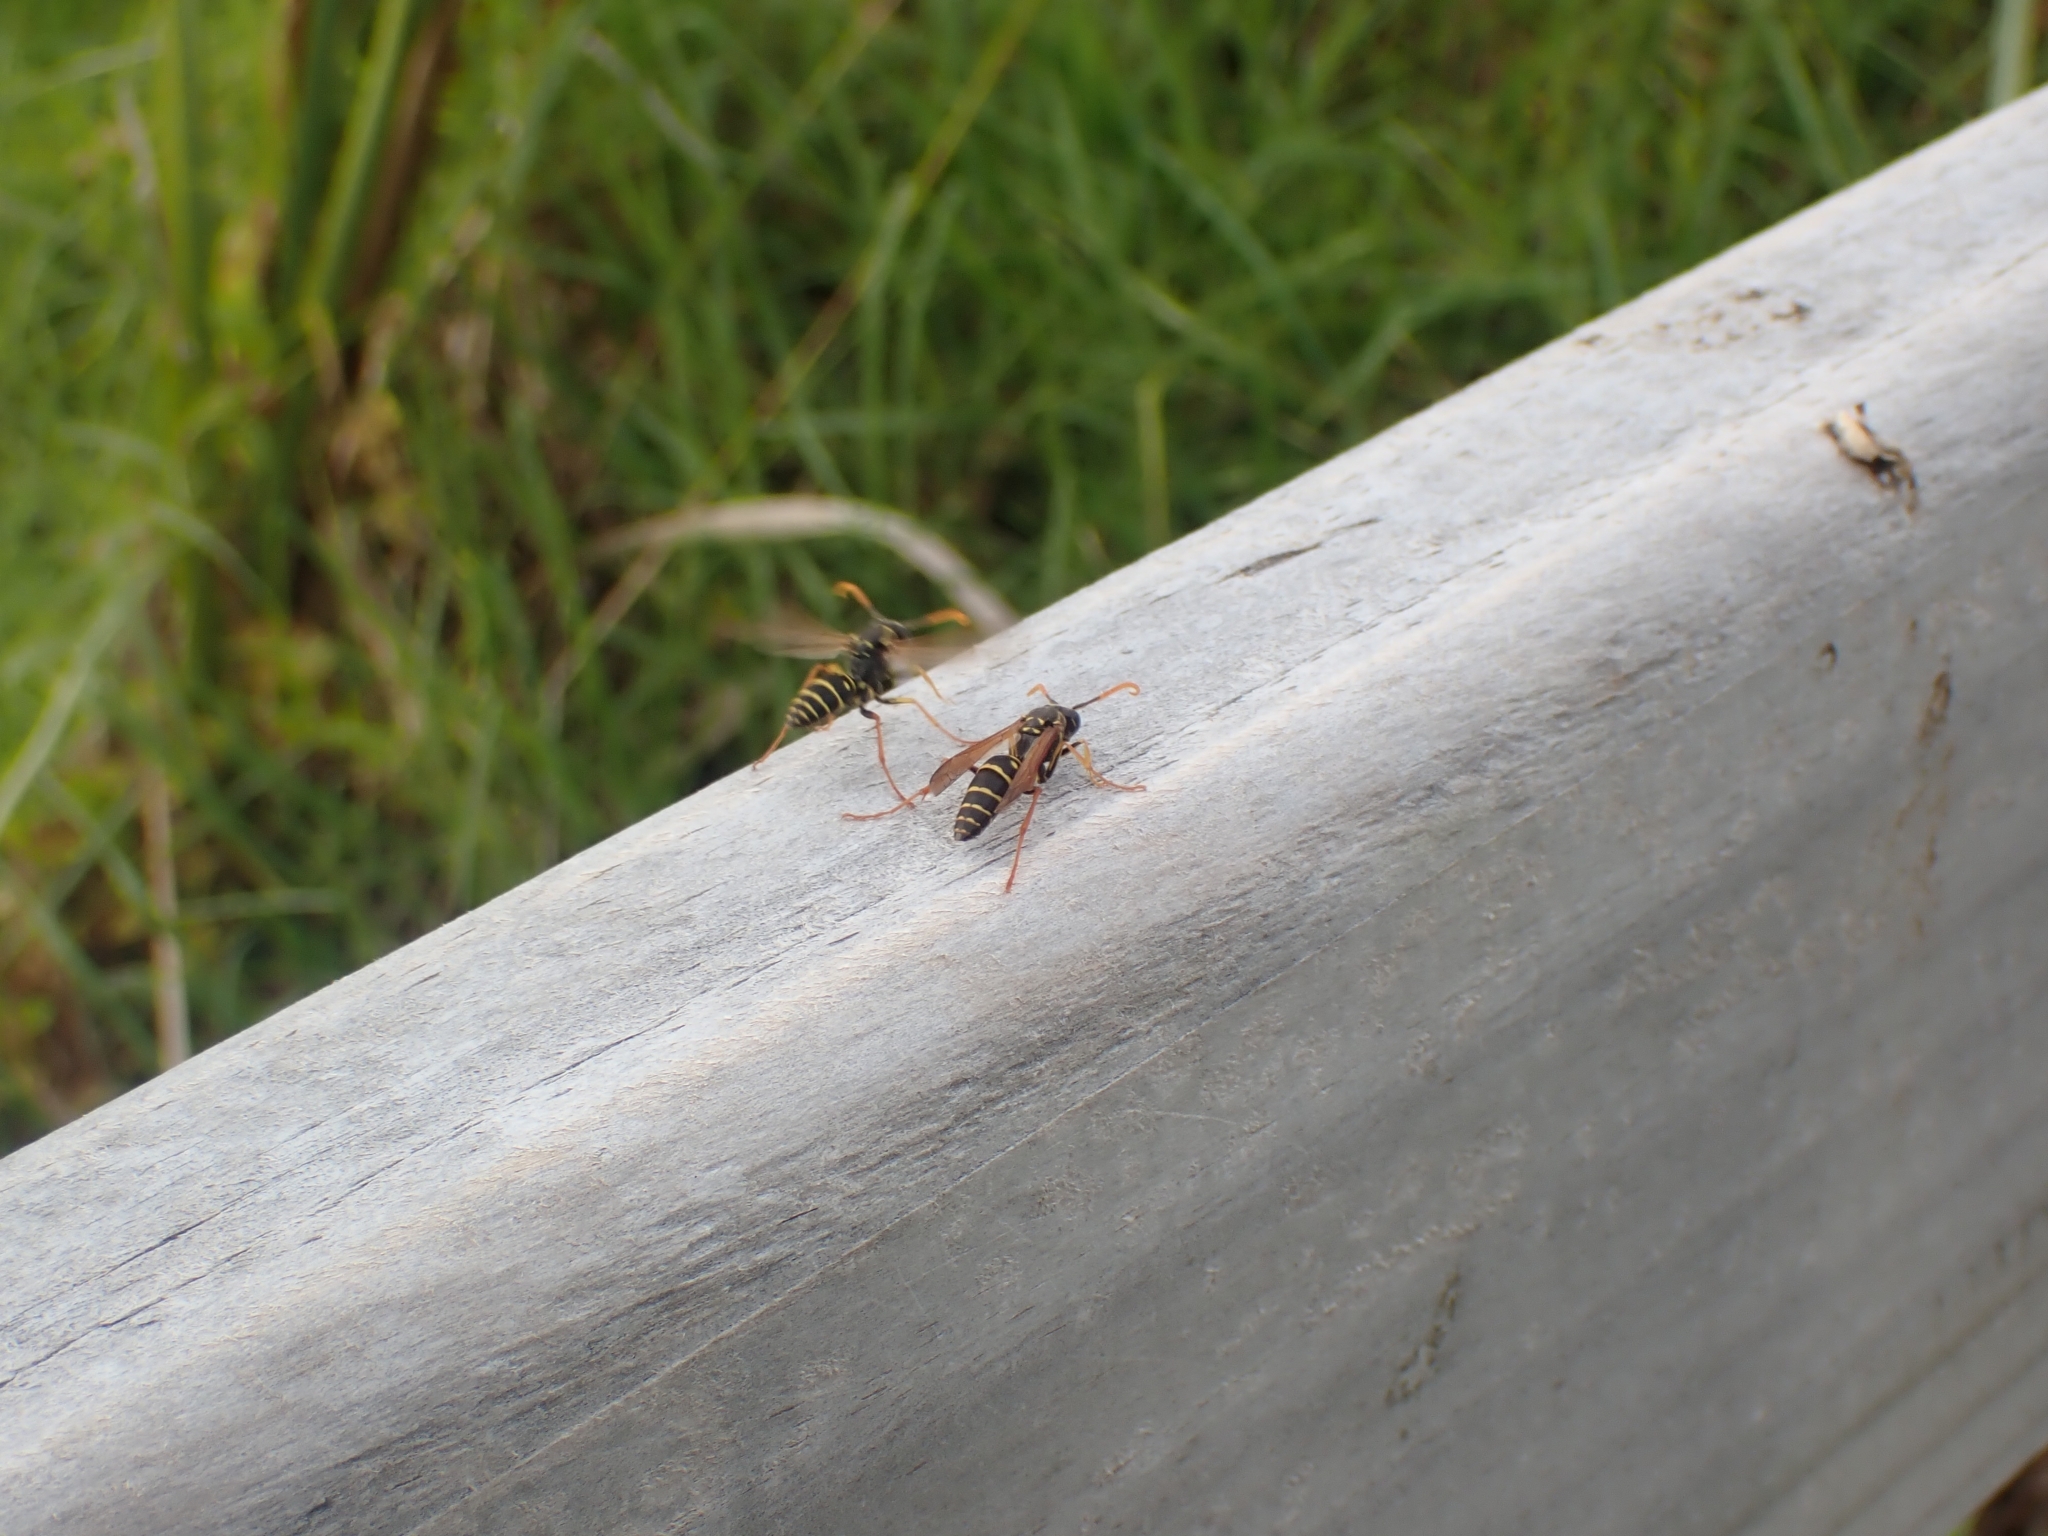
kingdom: Animalia
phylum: Arthropoda
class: Insecta
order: Hymenoptera
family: Eumenidae
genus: Polistes
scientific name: Polistes chinensis
